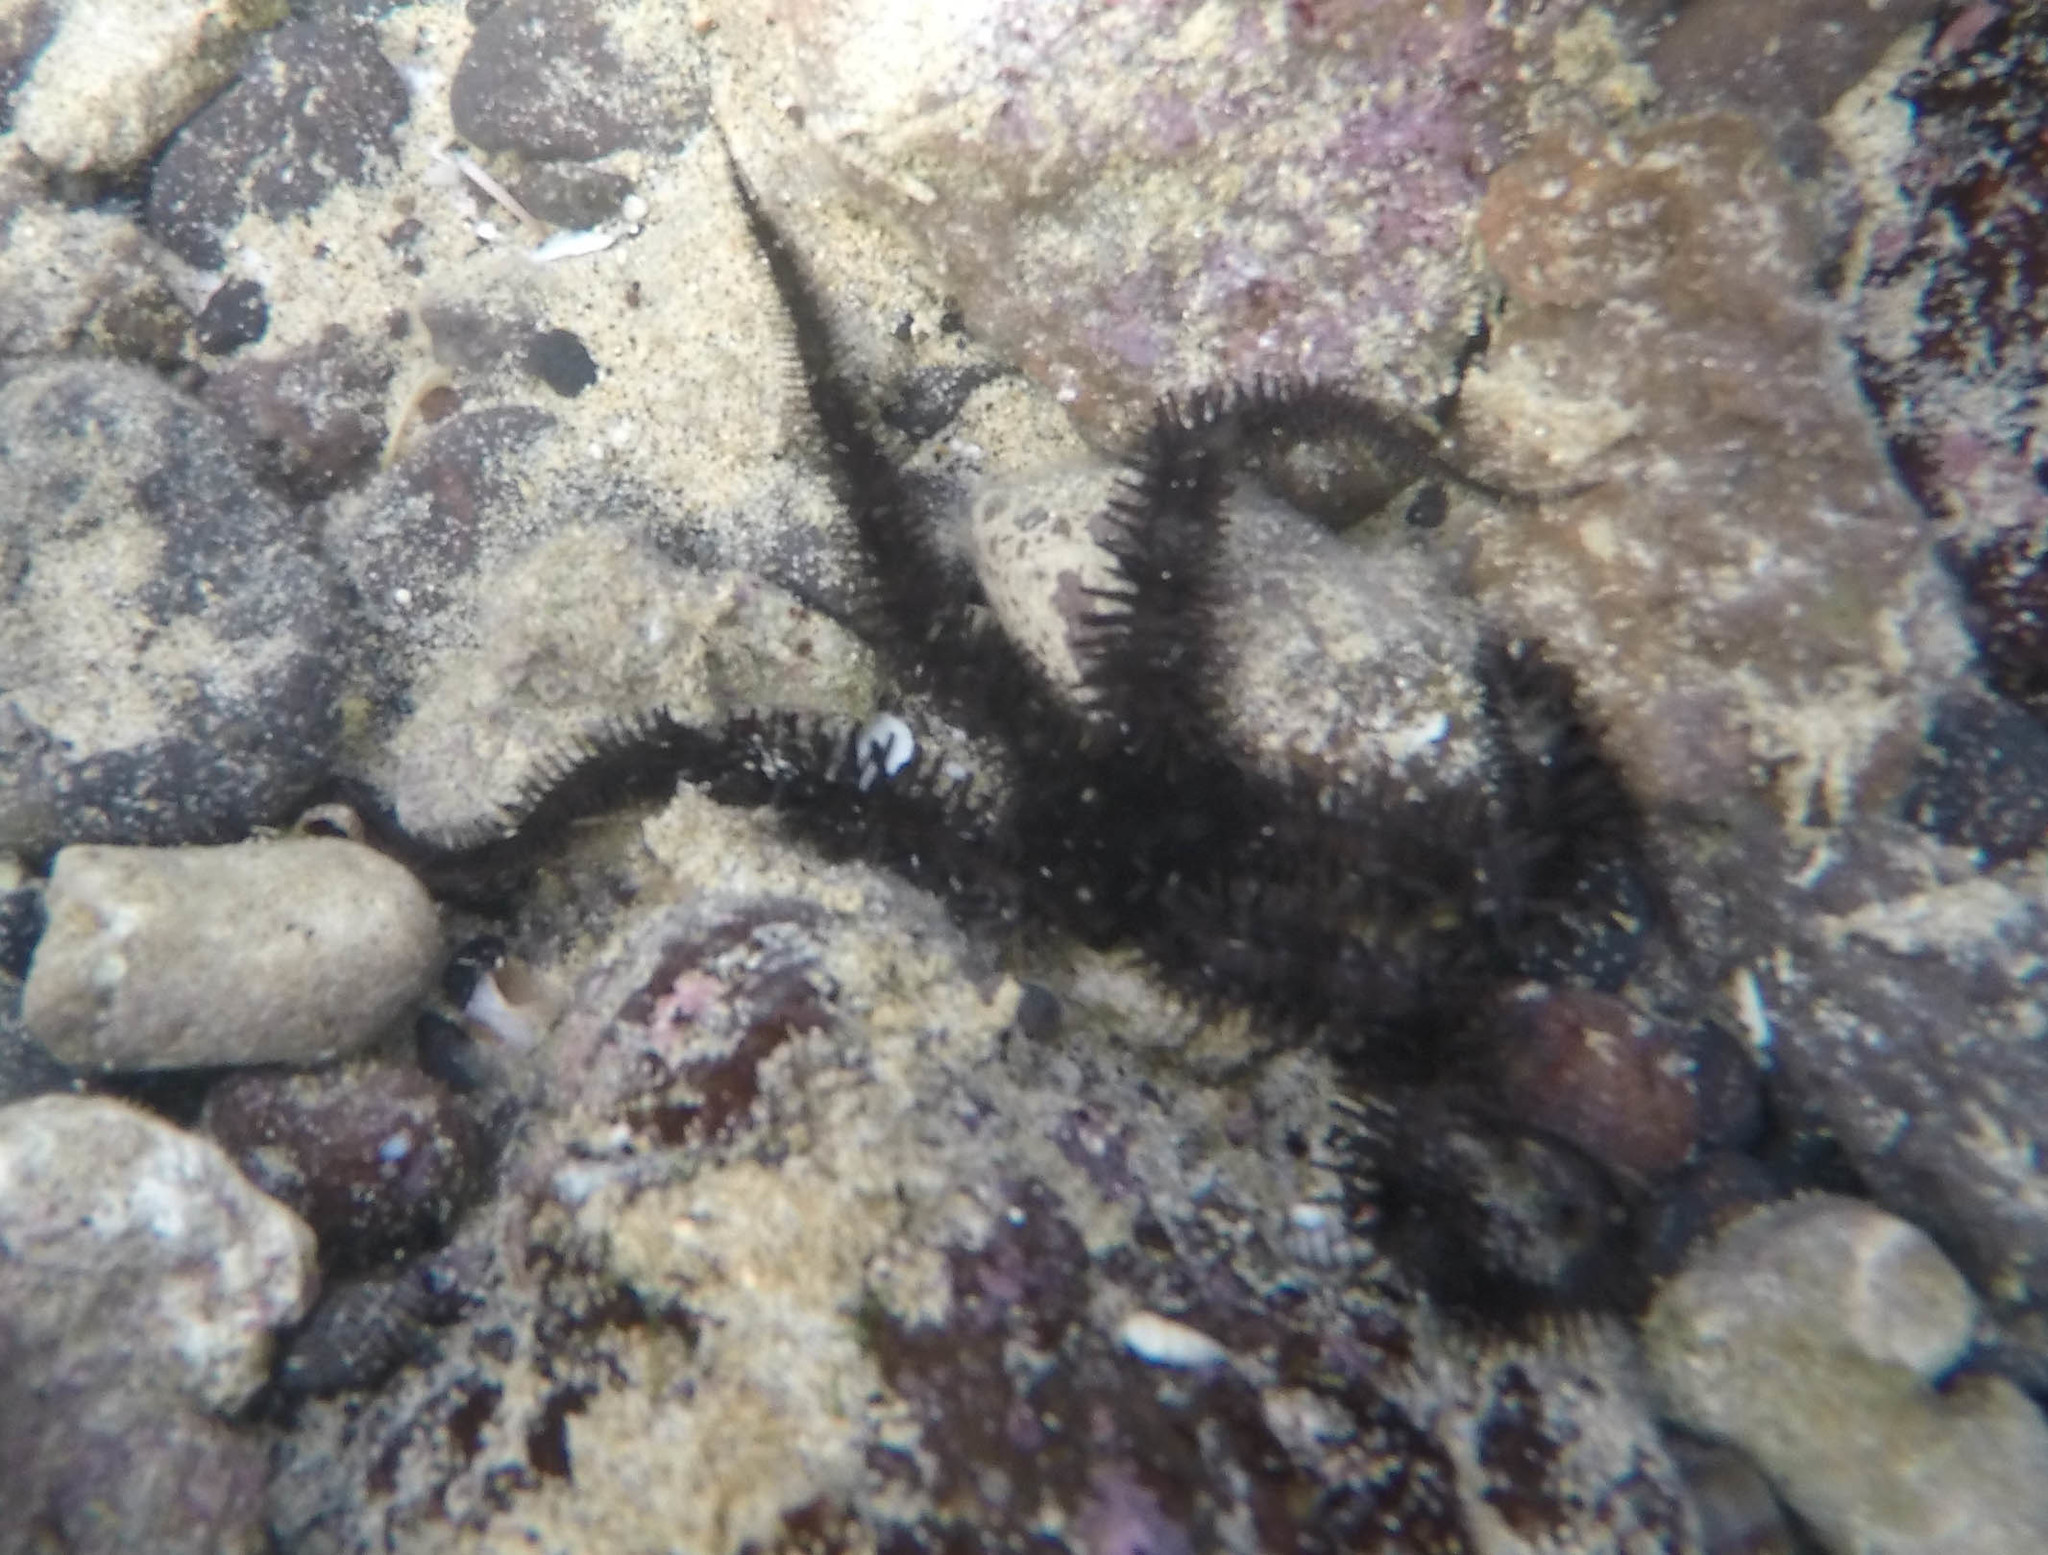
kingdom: Animalia
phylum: Echinodermata
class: Ophiuroidea
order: Ophiacanthida
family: Ophiocomidae
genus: Ophiocoma
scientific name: Ophiocoma erinaceus
